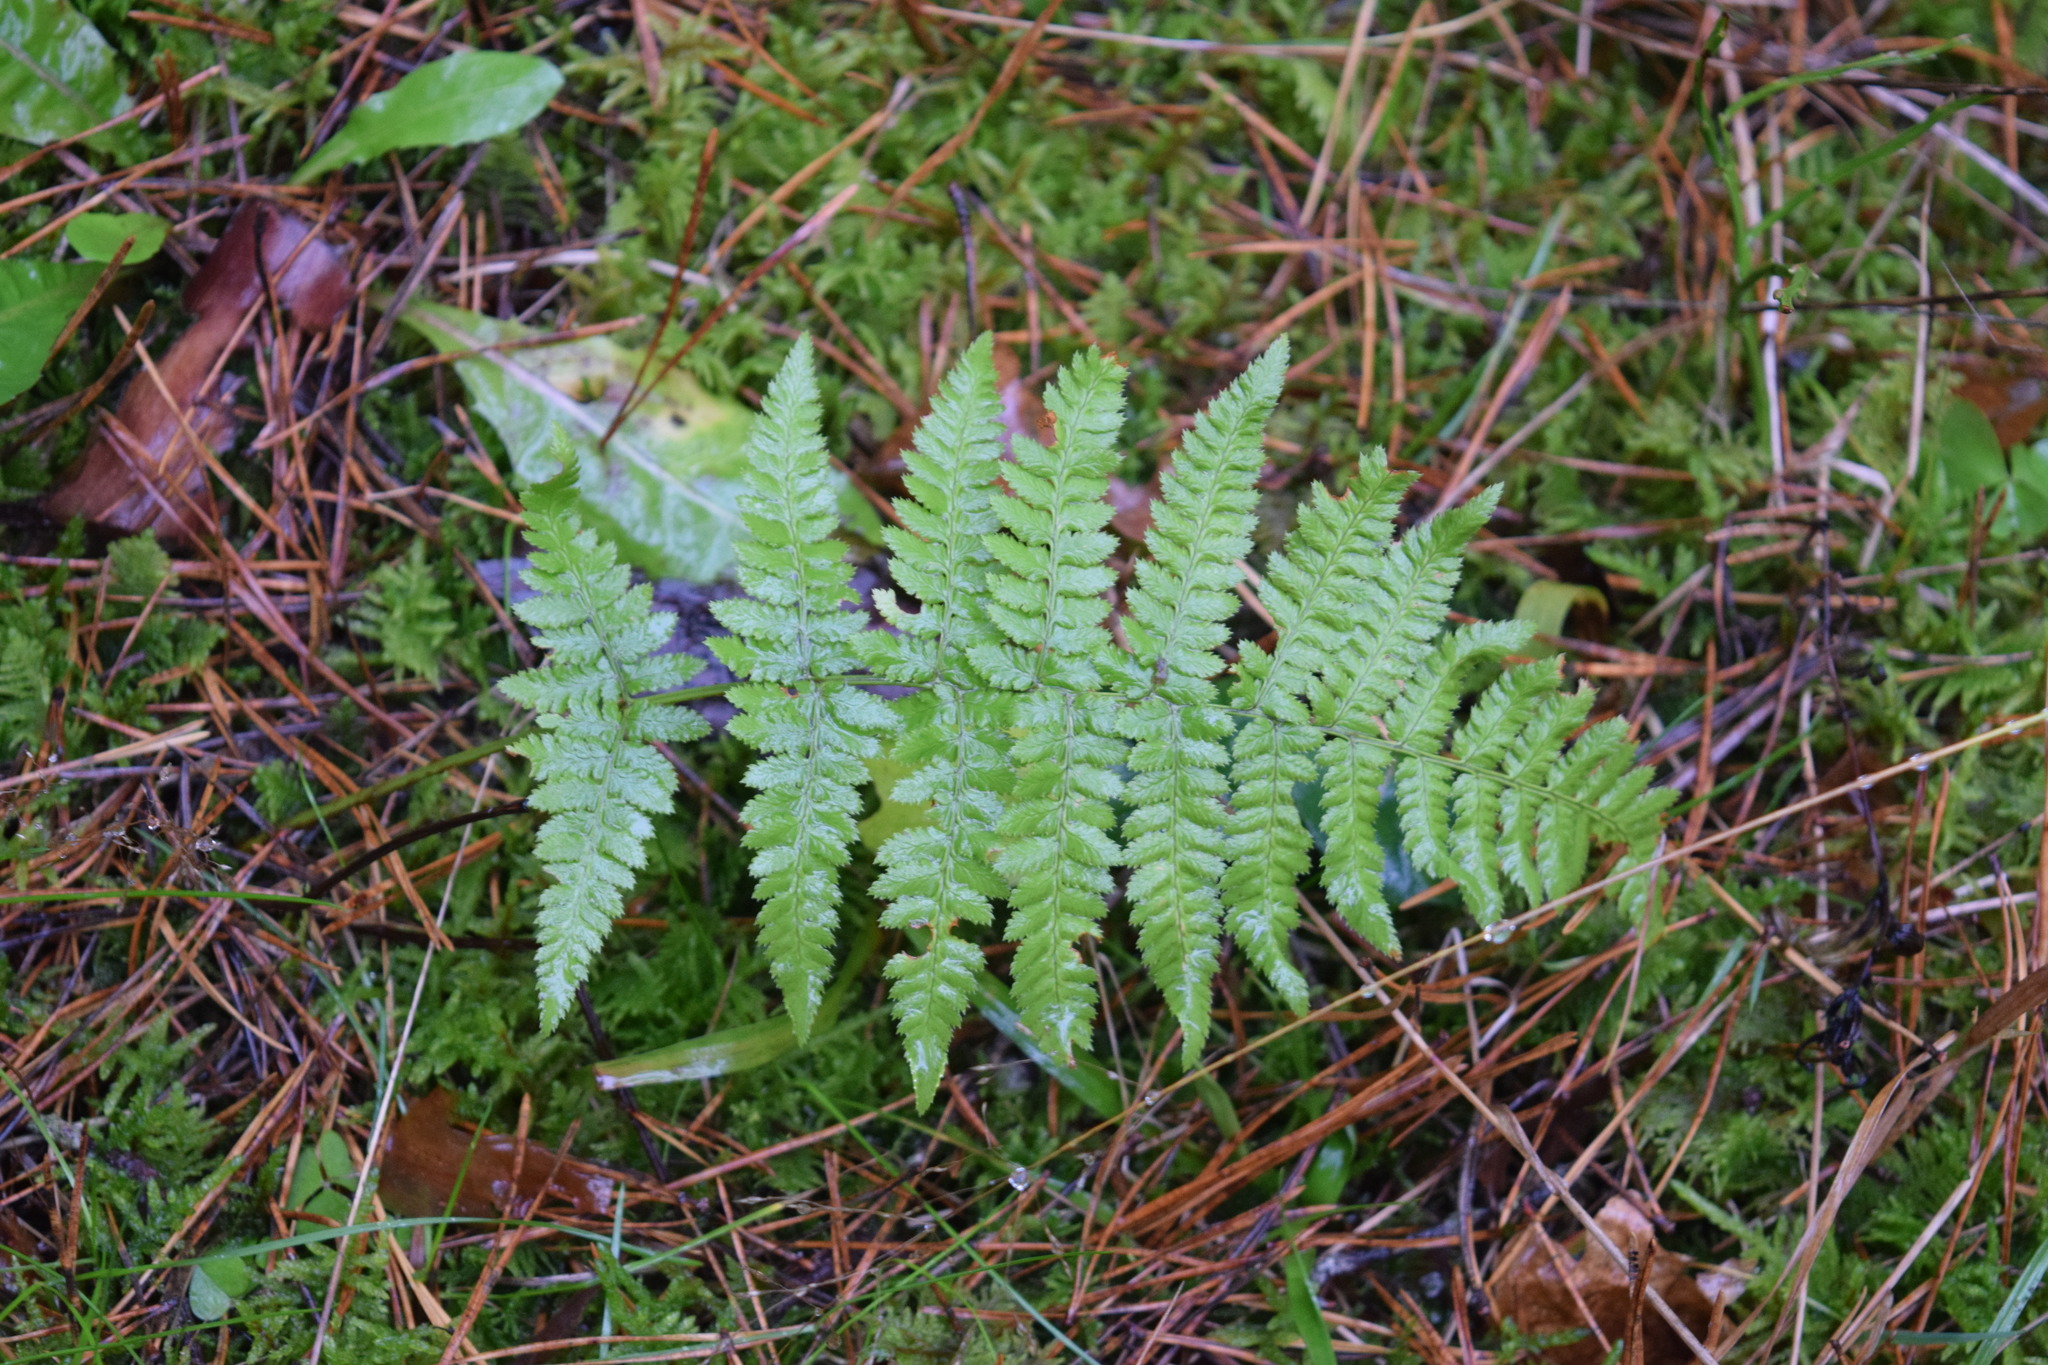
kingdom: Plantae
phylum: Tracheophyta
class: Polypodiopsida
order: Polypodiales
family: Dryopteridaceae
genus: Dryopteris
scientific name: Dryopteris carthusiana
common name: Narrow buckler-fern
